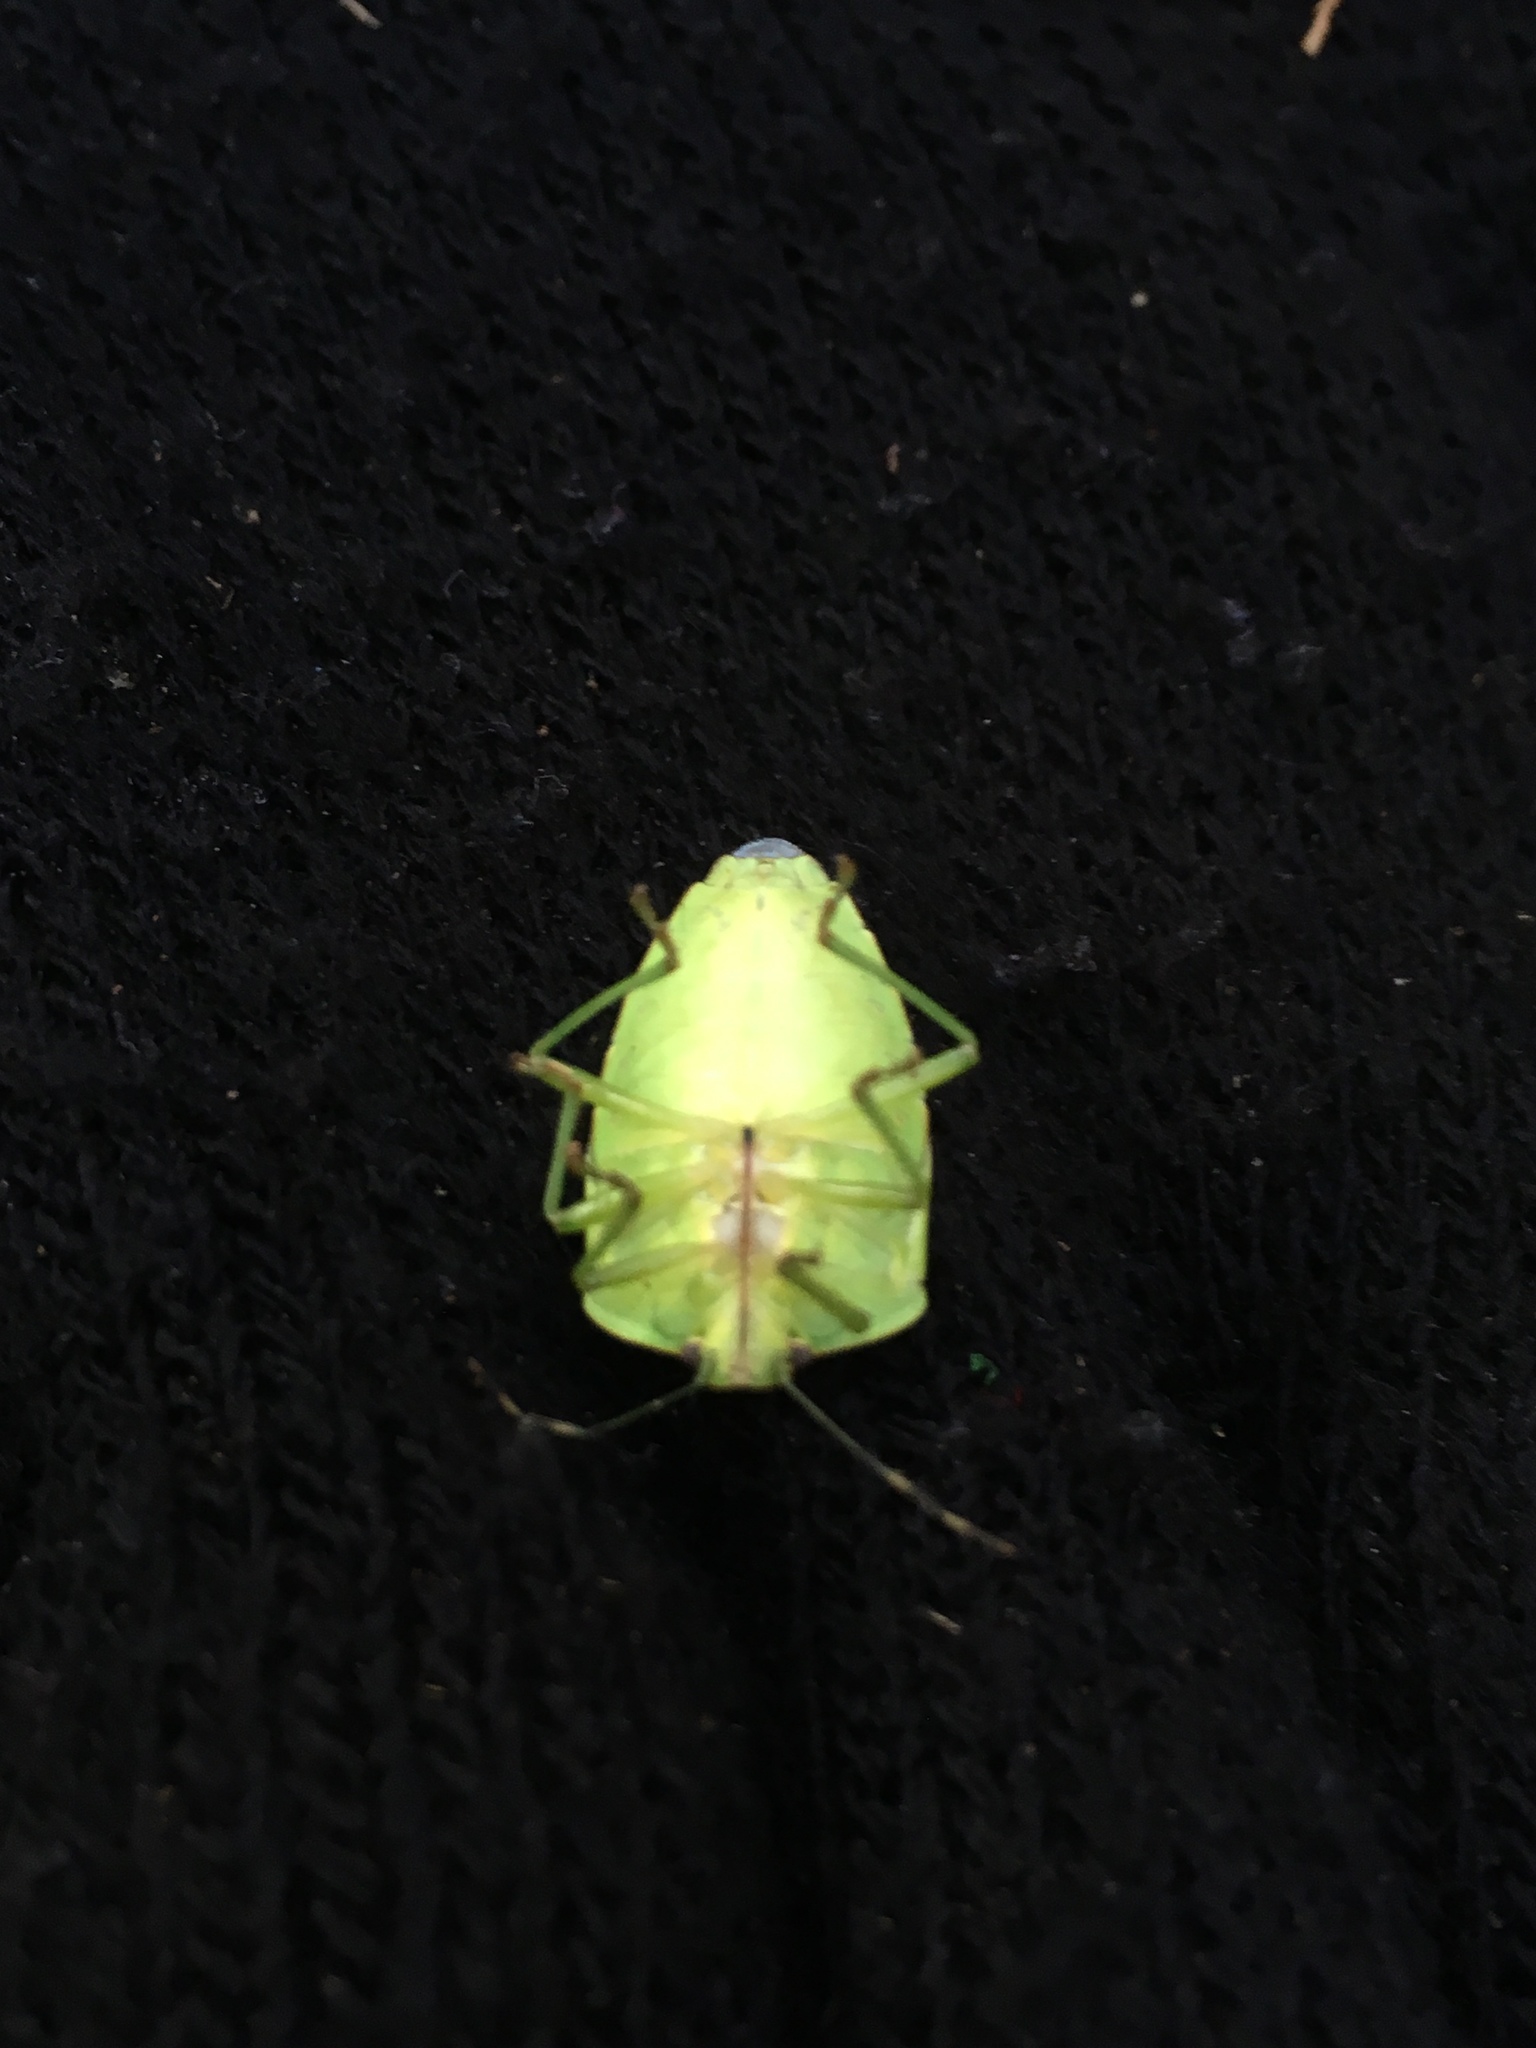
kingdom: Animalia
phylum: Arthropoda
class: Insecta
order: Hemiptera
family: Pentatomidae
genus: Chinavia
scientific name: Chinavia hilaris
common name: Green stink bug
